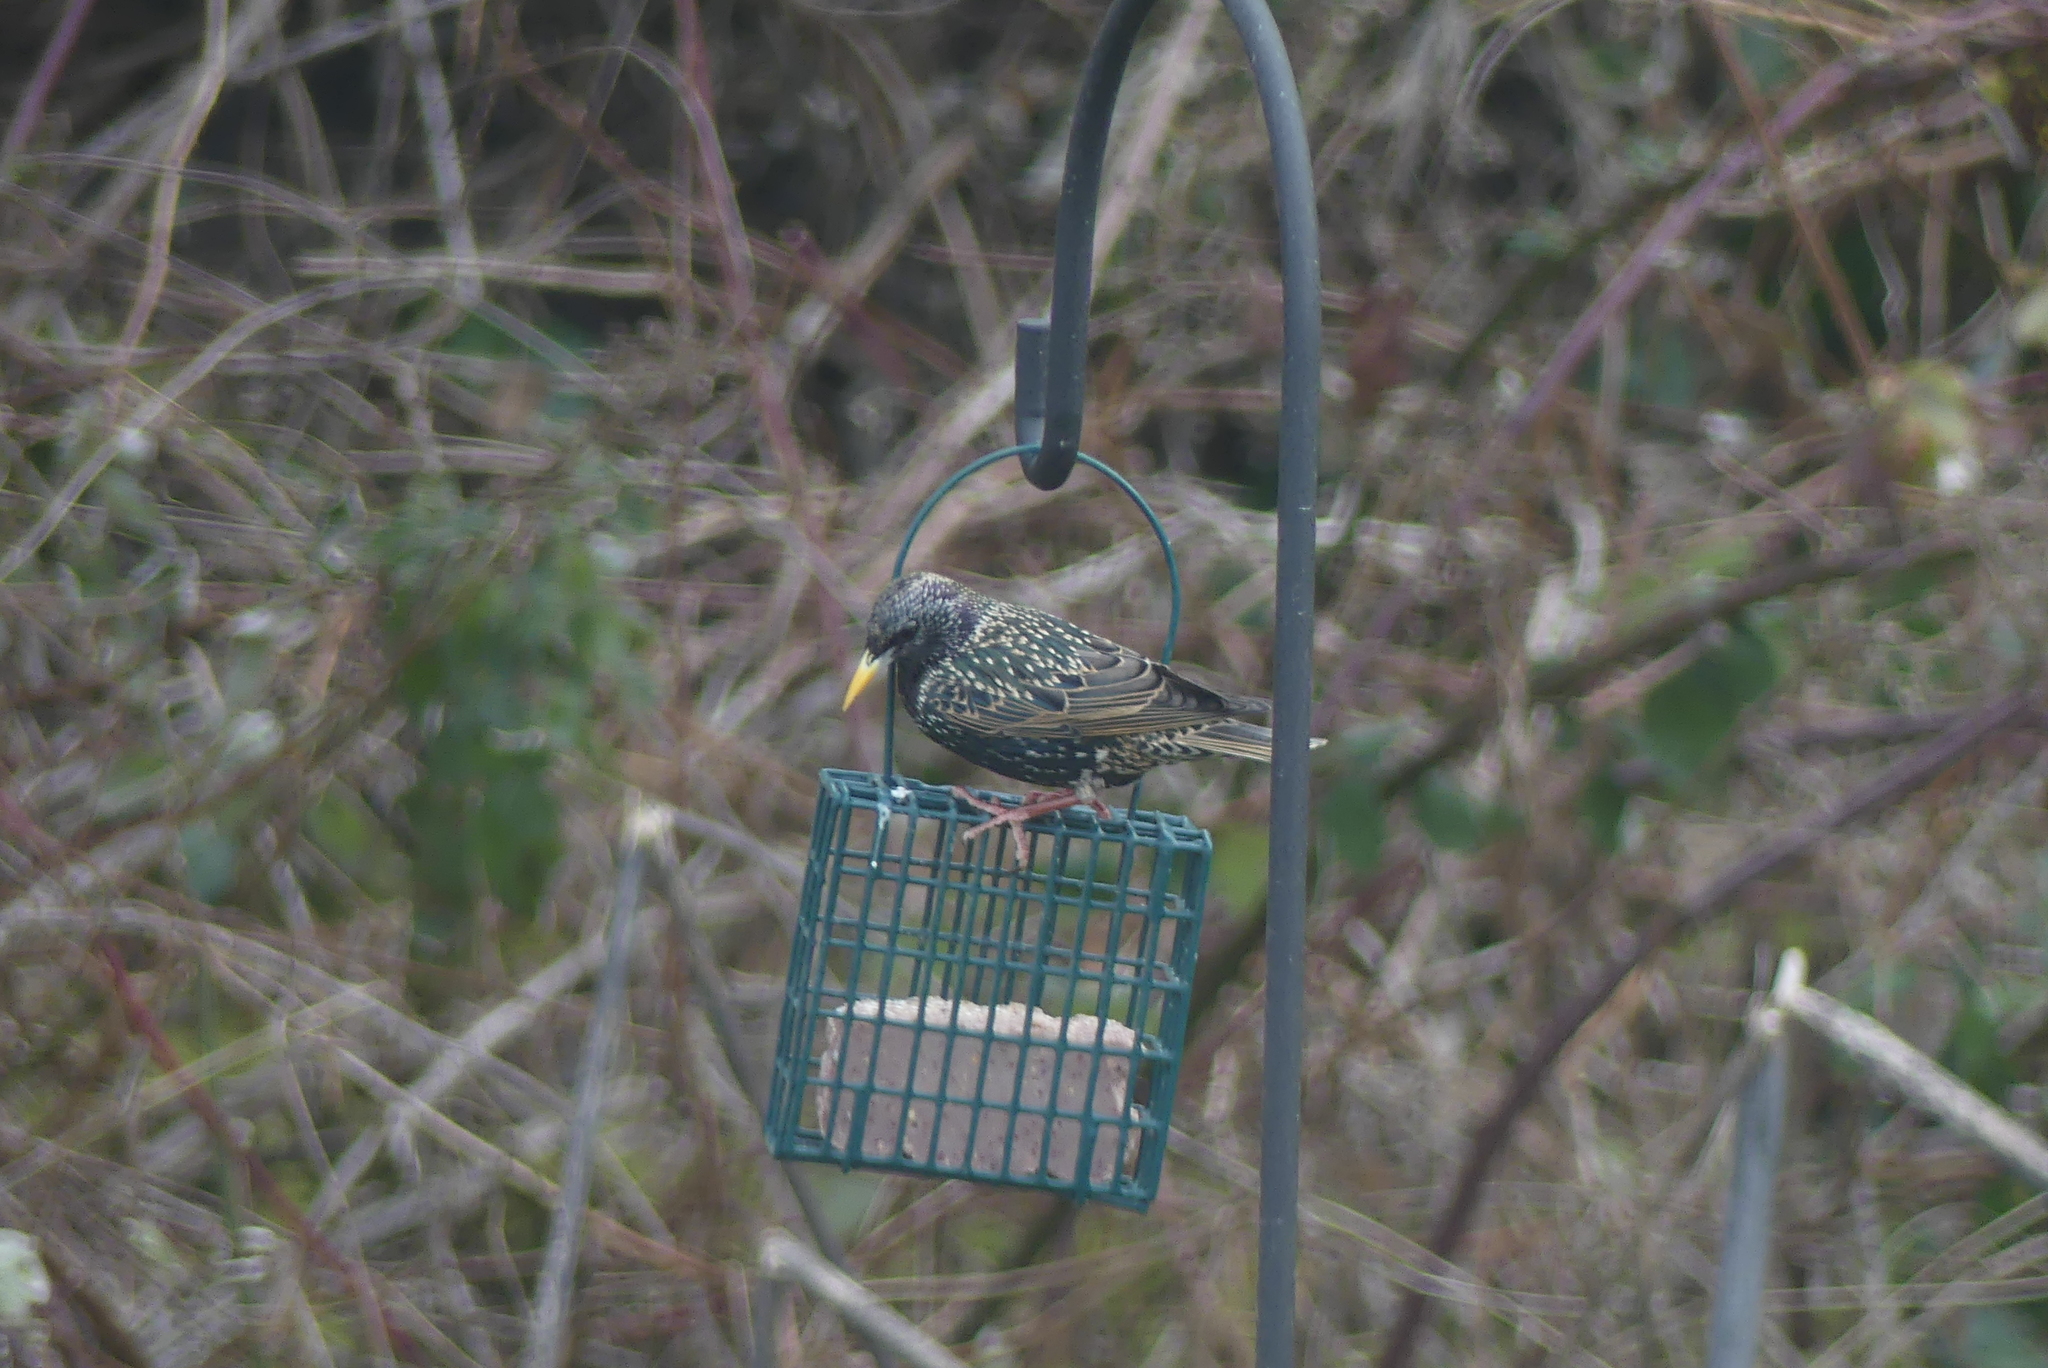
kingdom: Animalia
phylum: Chordata
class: Aves
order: Passeriformes
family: Sturnidae
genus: Sturnus
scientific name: Sturnus vulgaris
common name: Common starling
